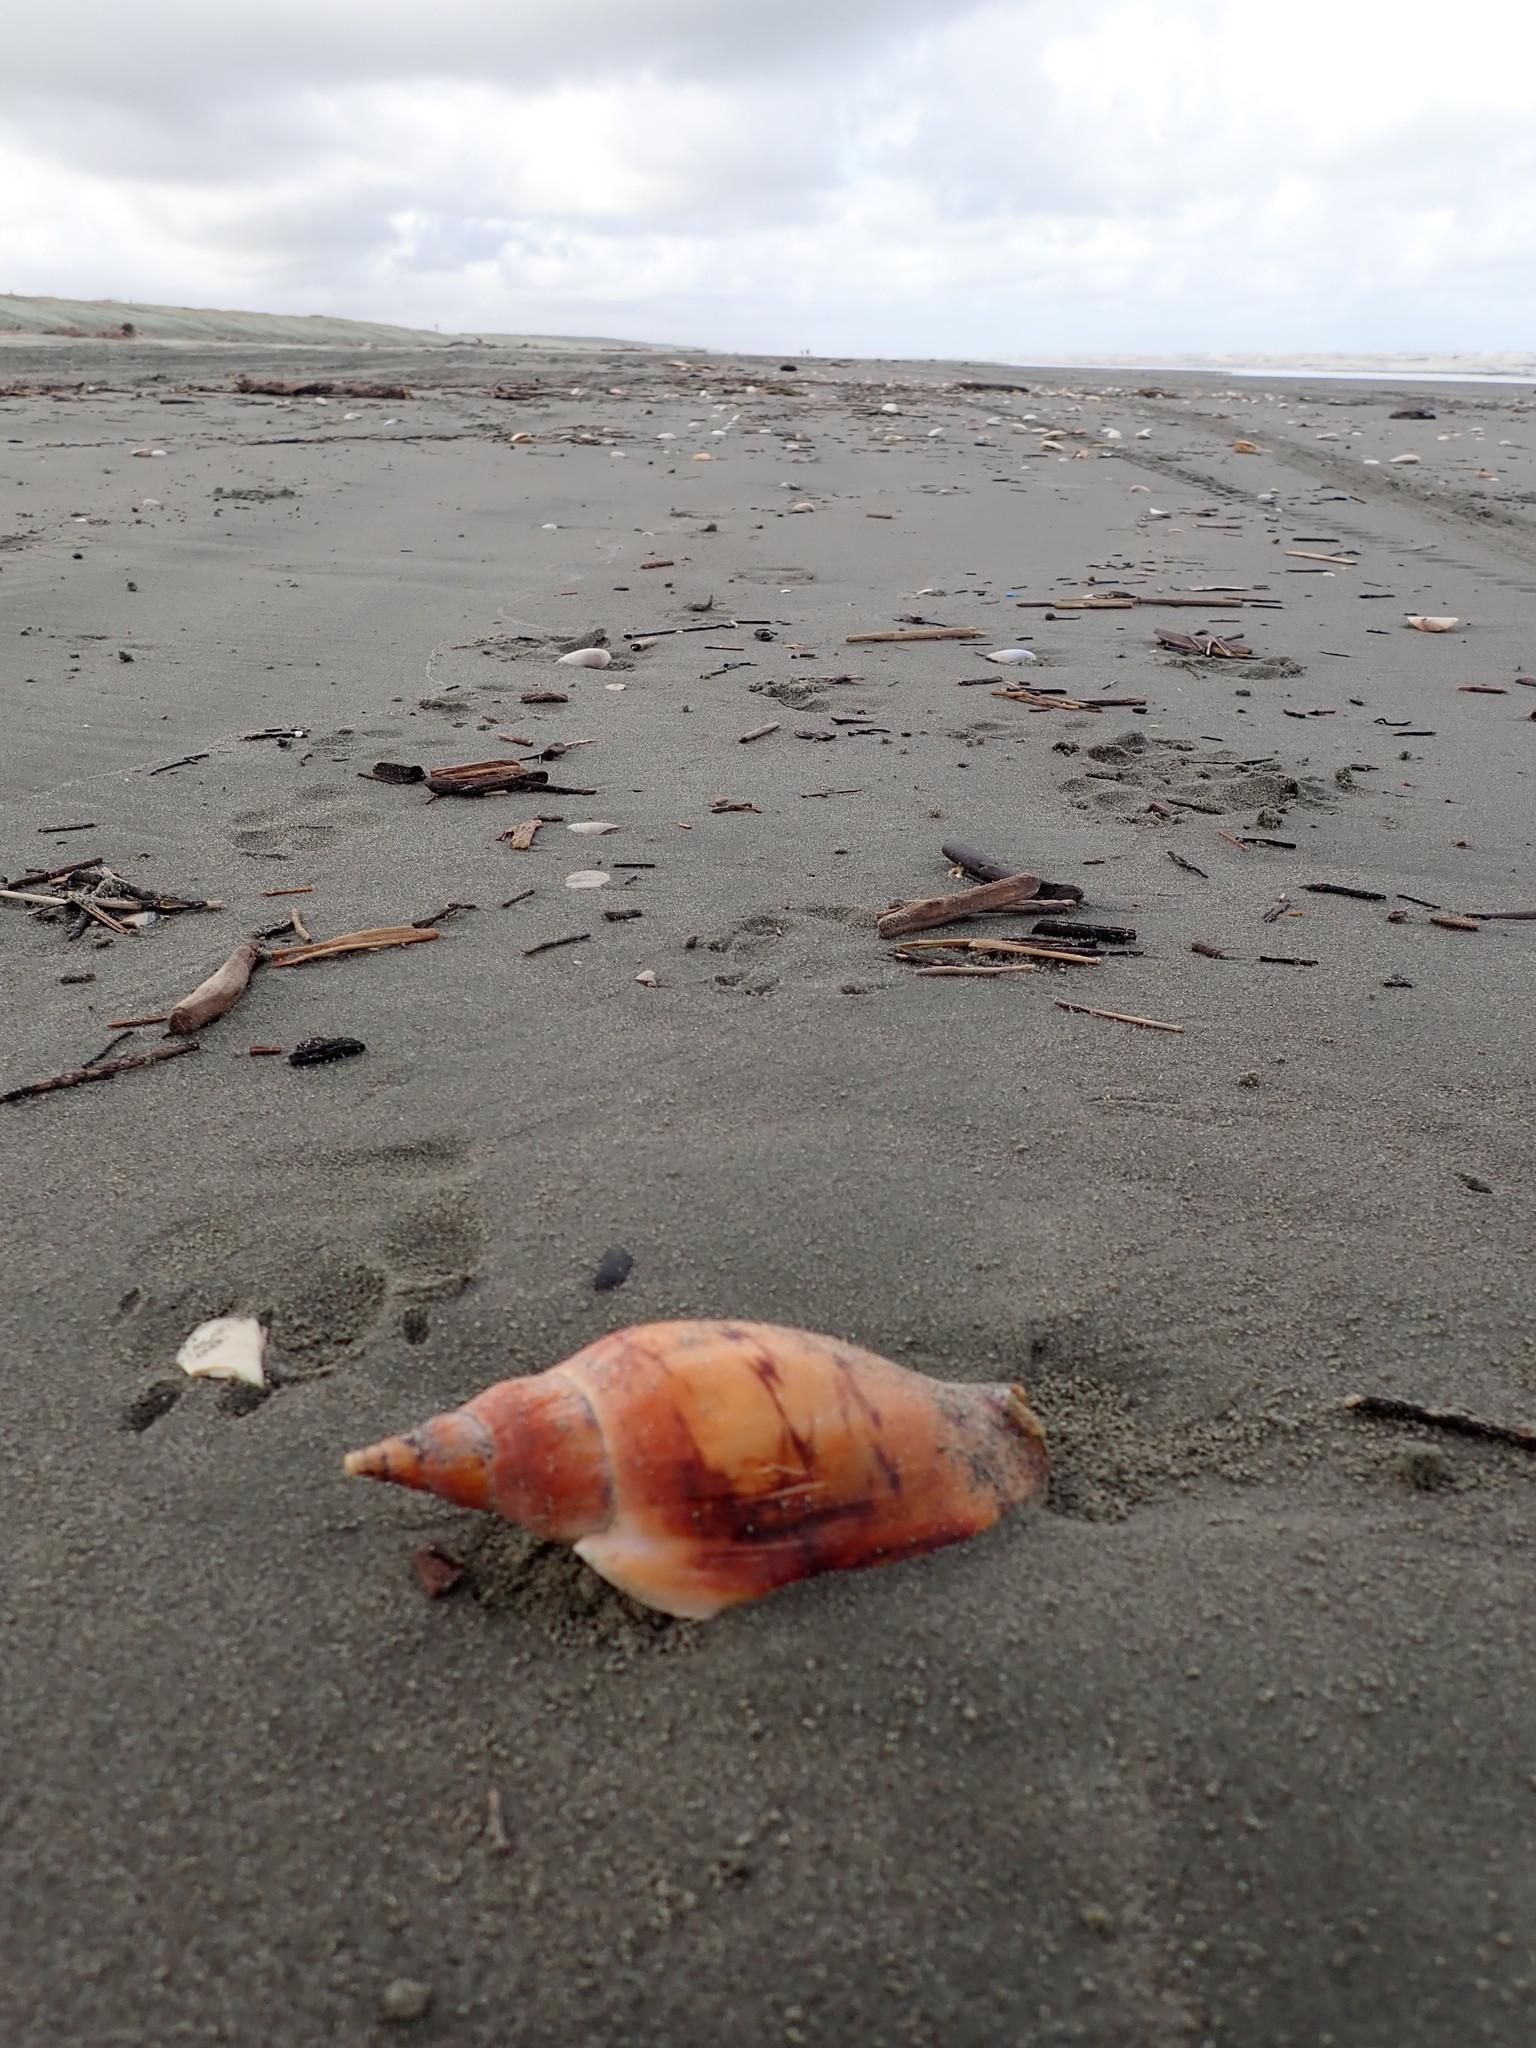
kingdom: Animalia
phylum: Mollusca
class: Gastropoda
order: Neogastropoda
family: Volutidae
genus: Alcithoe
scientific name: Alcithoe arabica
